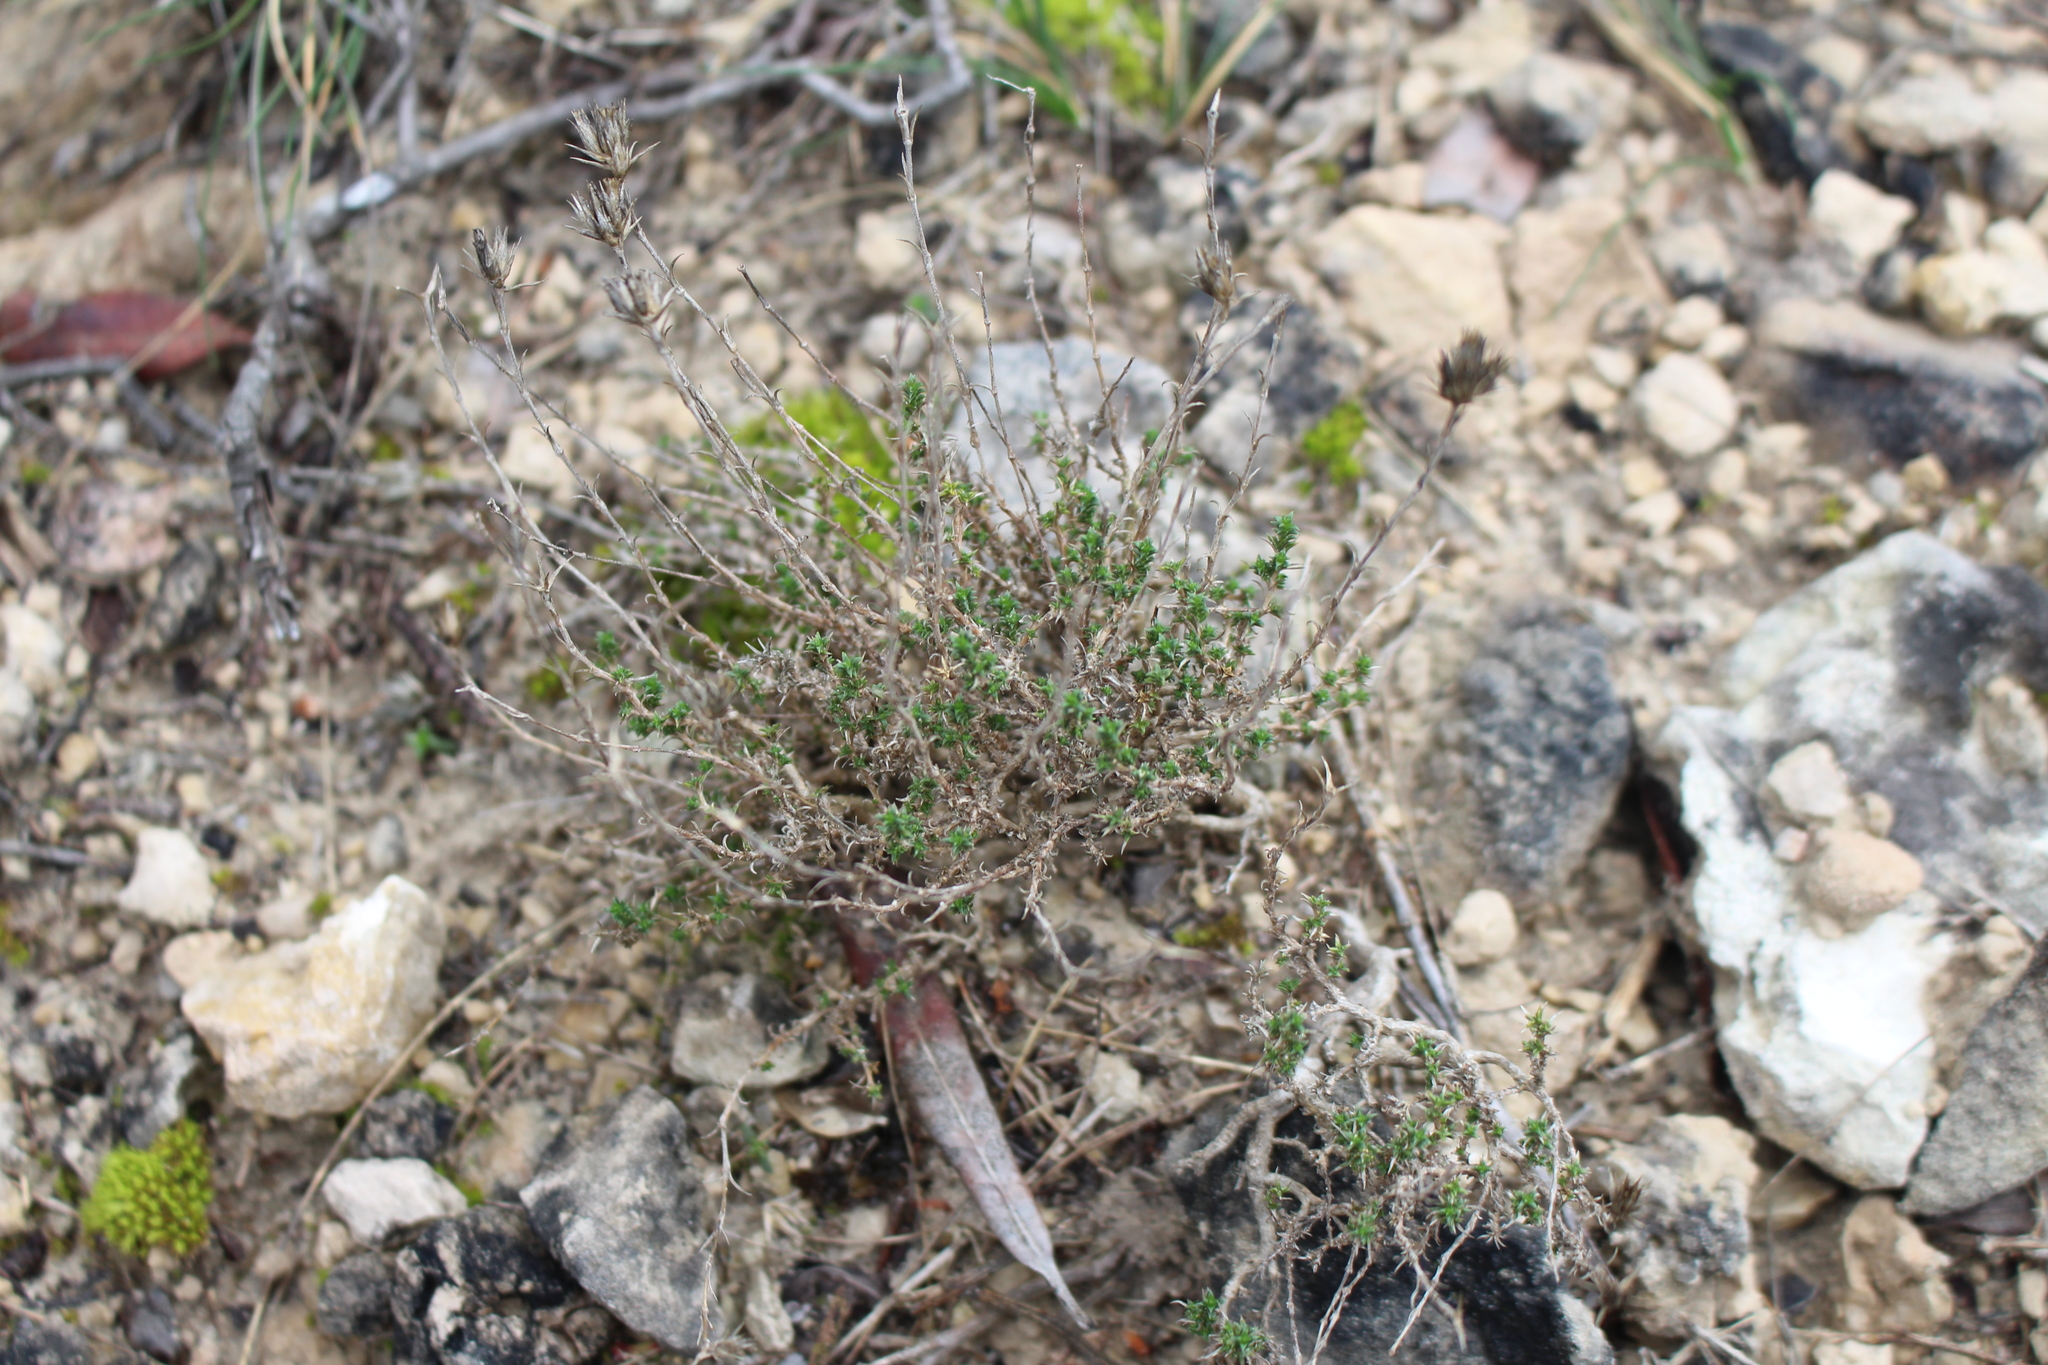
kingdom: Plantae
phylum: Tracheophyta
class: Magnoliopsida
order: Caryophyllales
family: Caryophyllaceae
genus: Arenaria
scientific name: Arenaria aggregata
